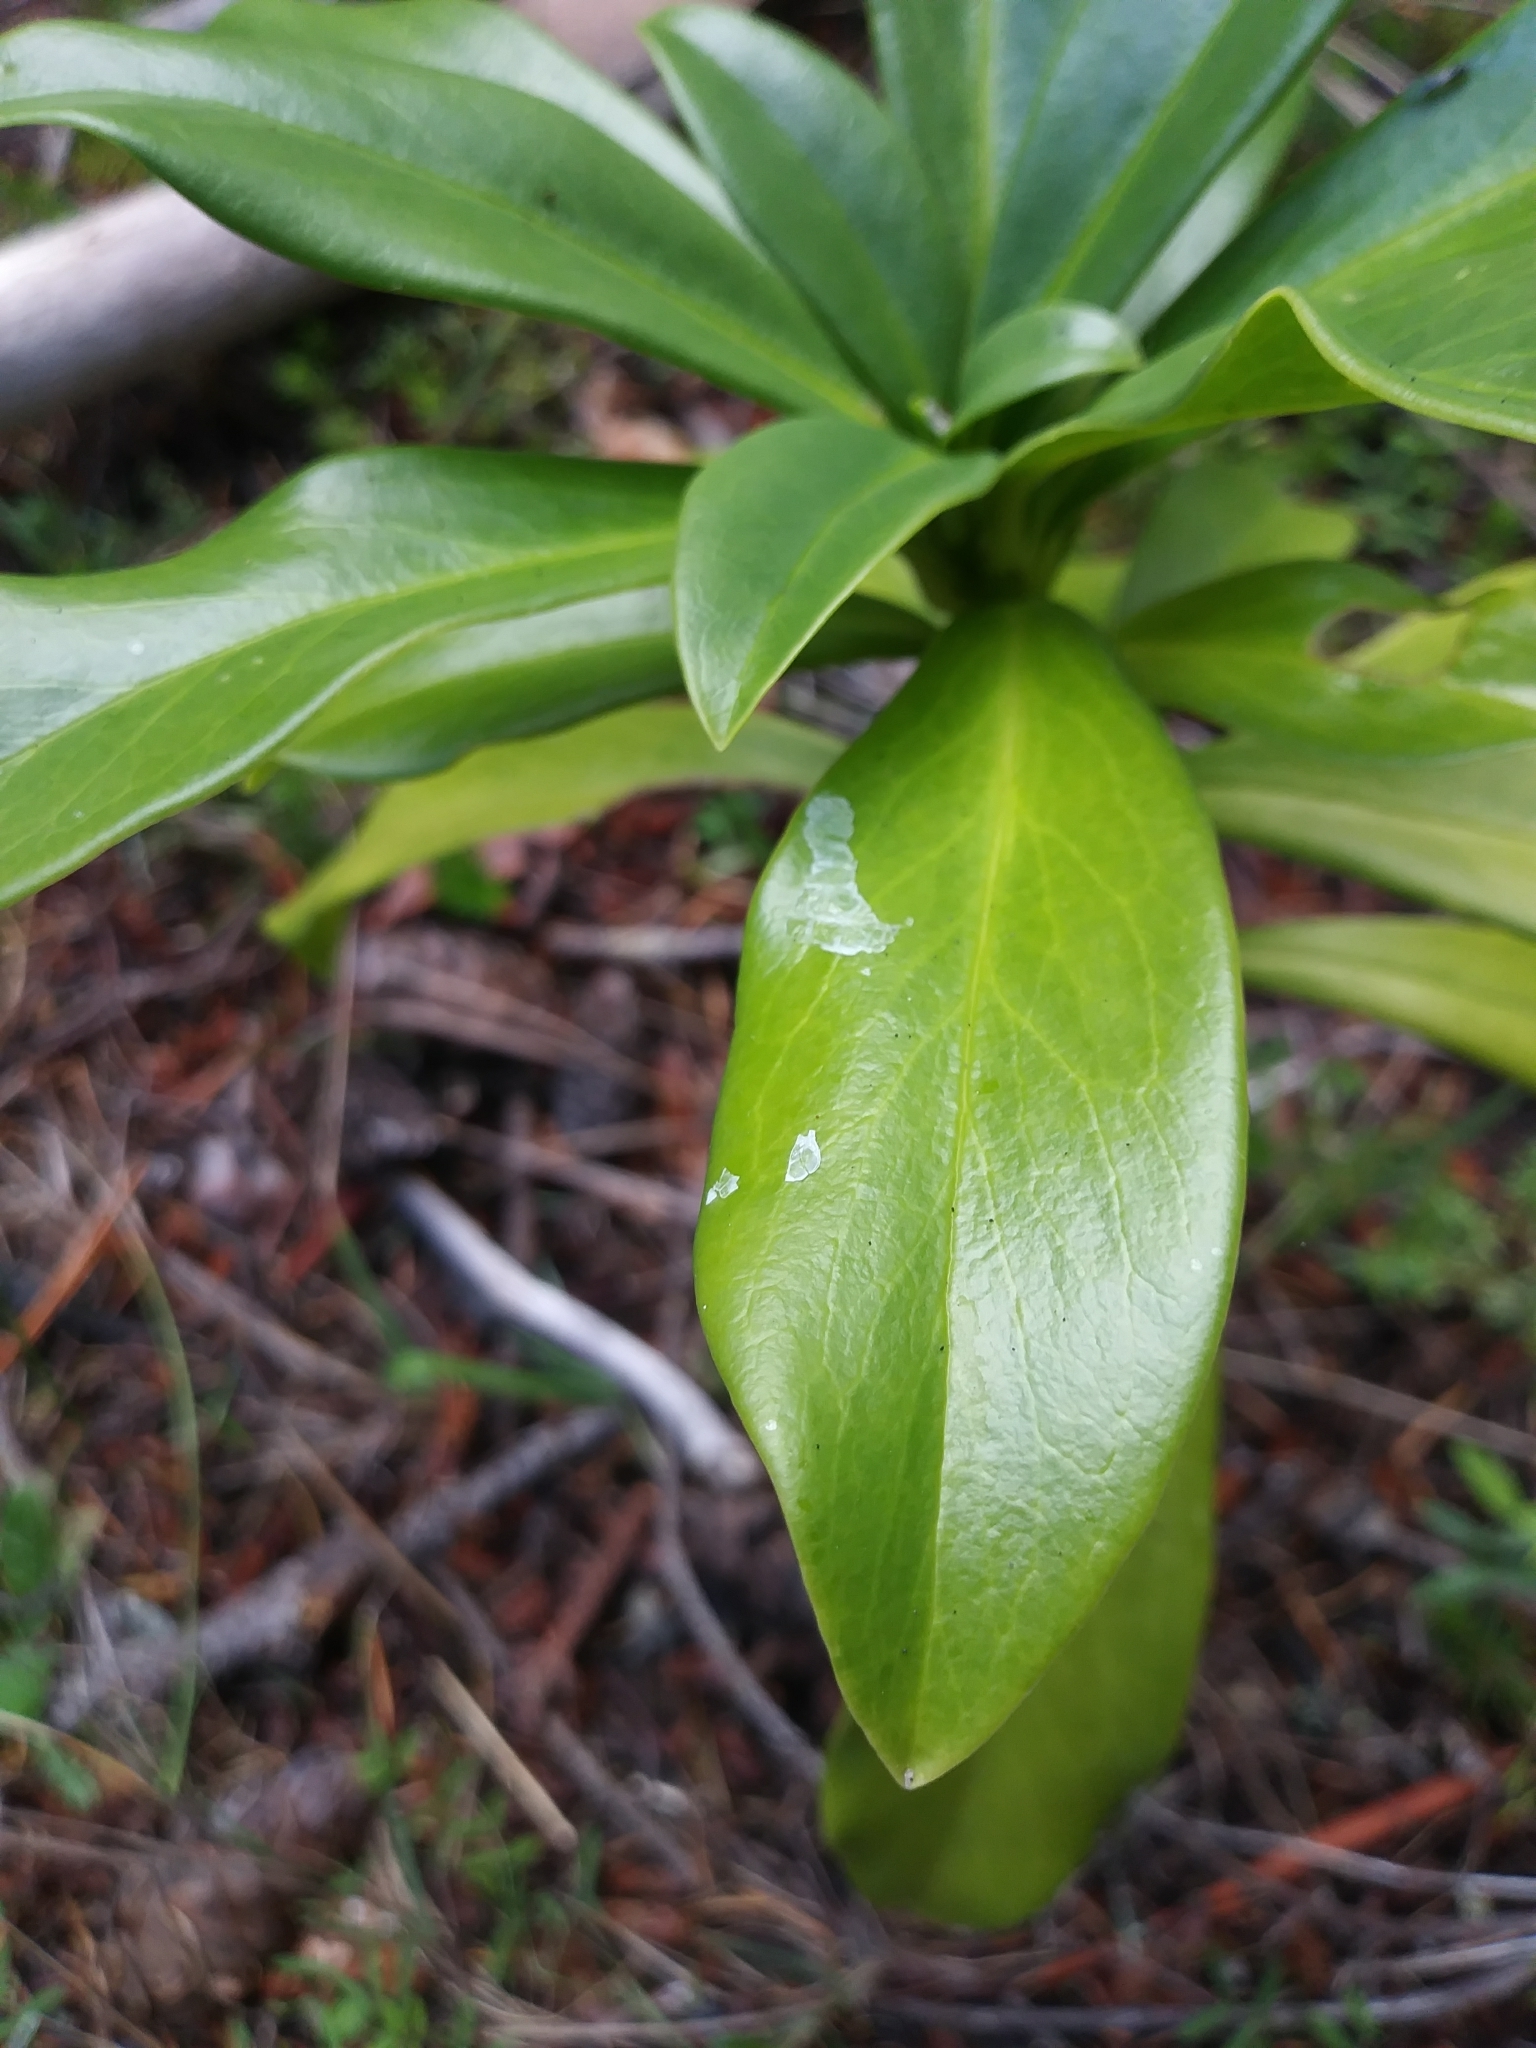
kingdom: Plantae
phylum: Tracheophyta
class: Magnoliopsida
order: Malvales
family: Thymelaeaceae
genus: Daphne
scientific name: Daphne laureola
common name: Spurge-laurel
